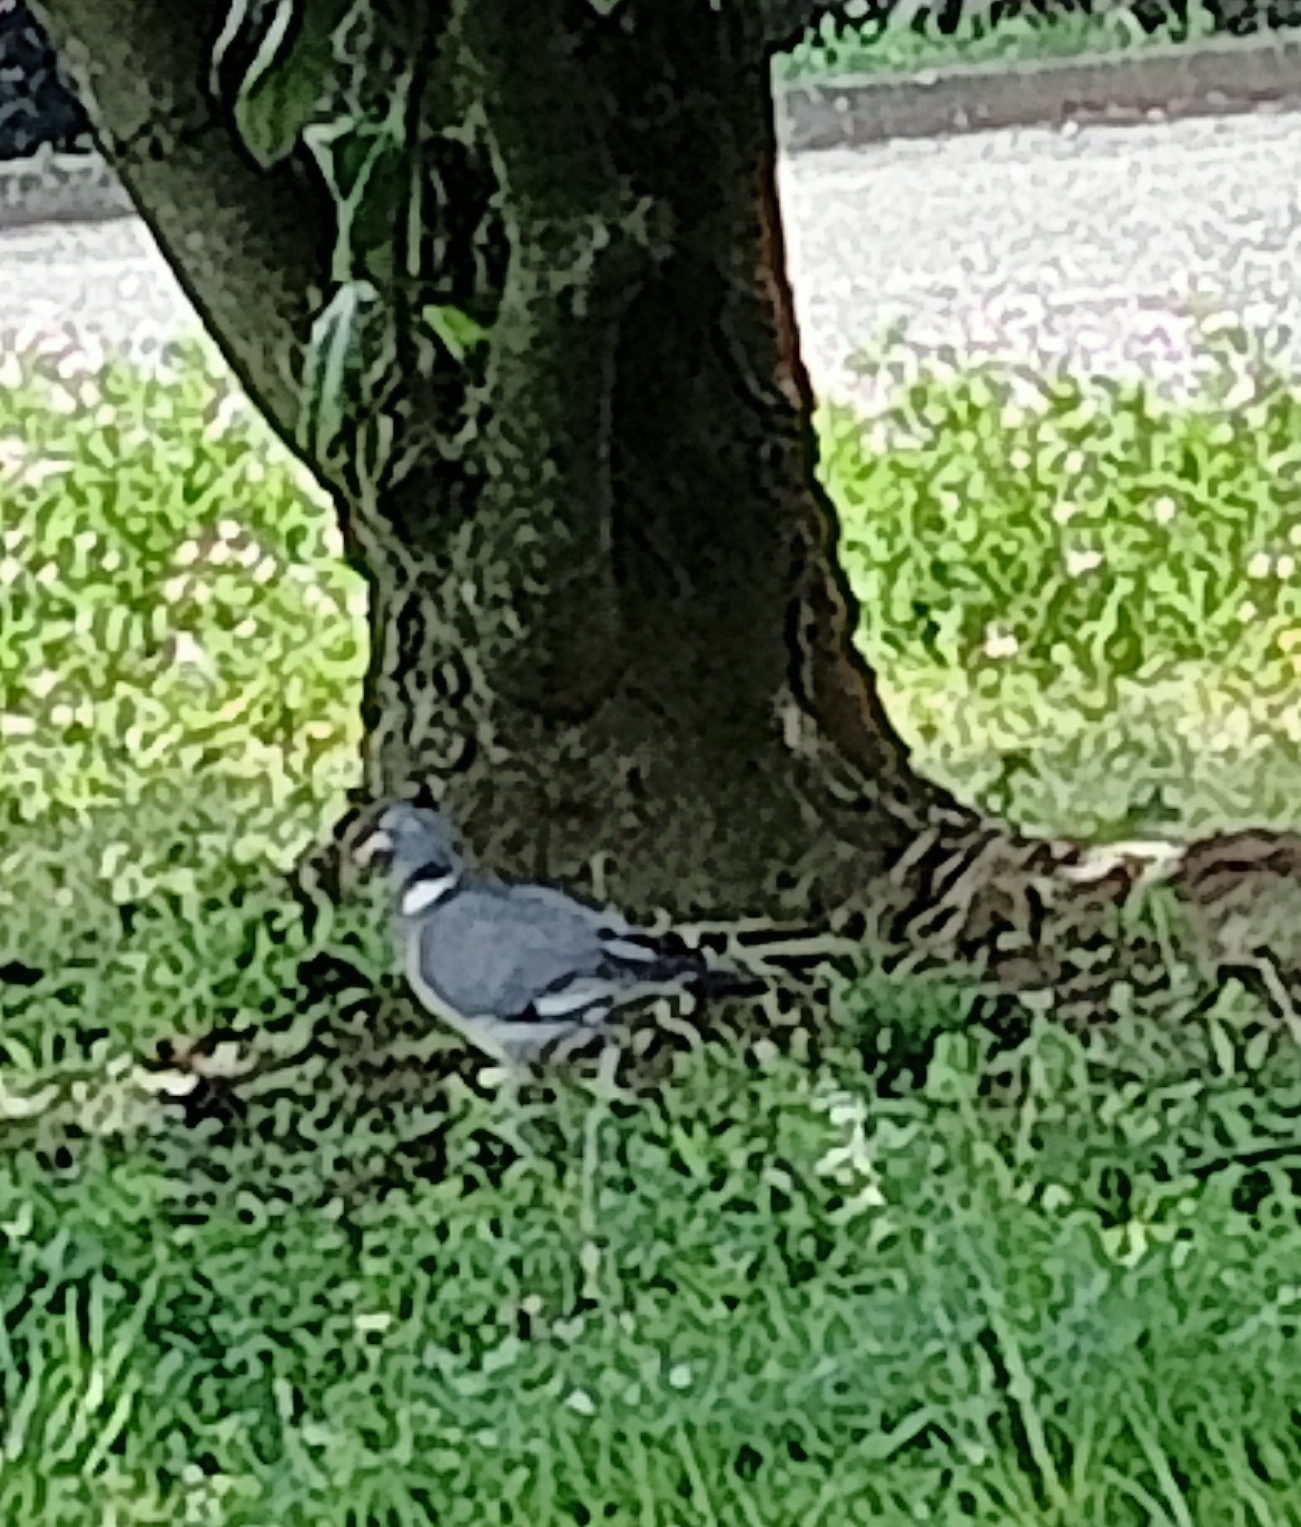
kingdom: Animalia
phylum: Chordata
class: Aves
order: Columbiformes
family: Columbidae
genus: Columba
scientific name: Columba palumbus
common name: Common wood pigeon
